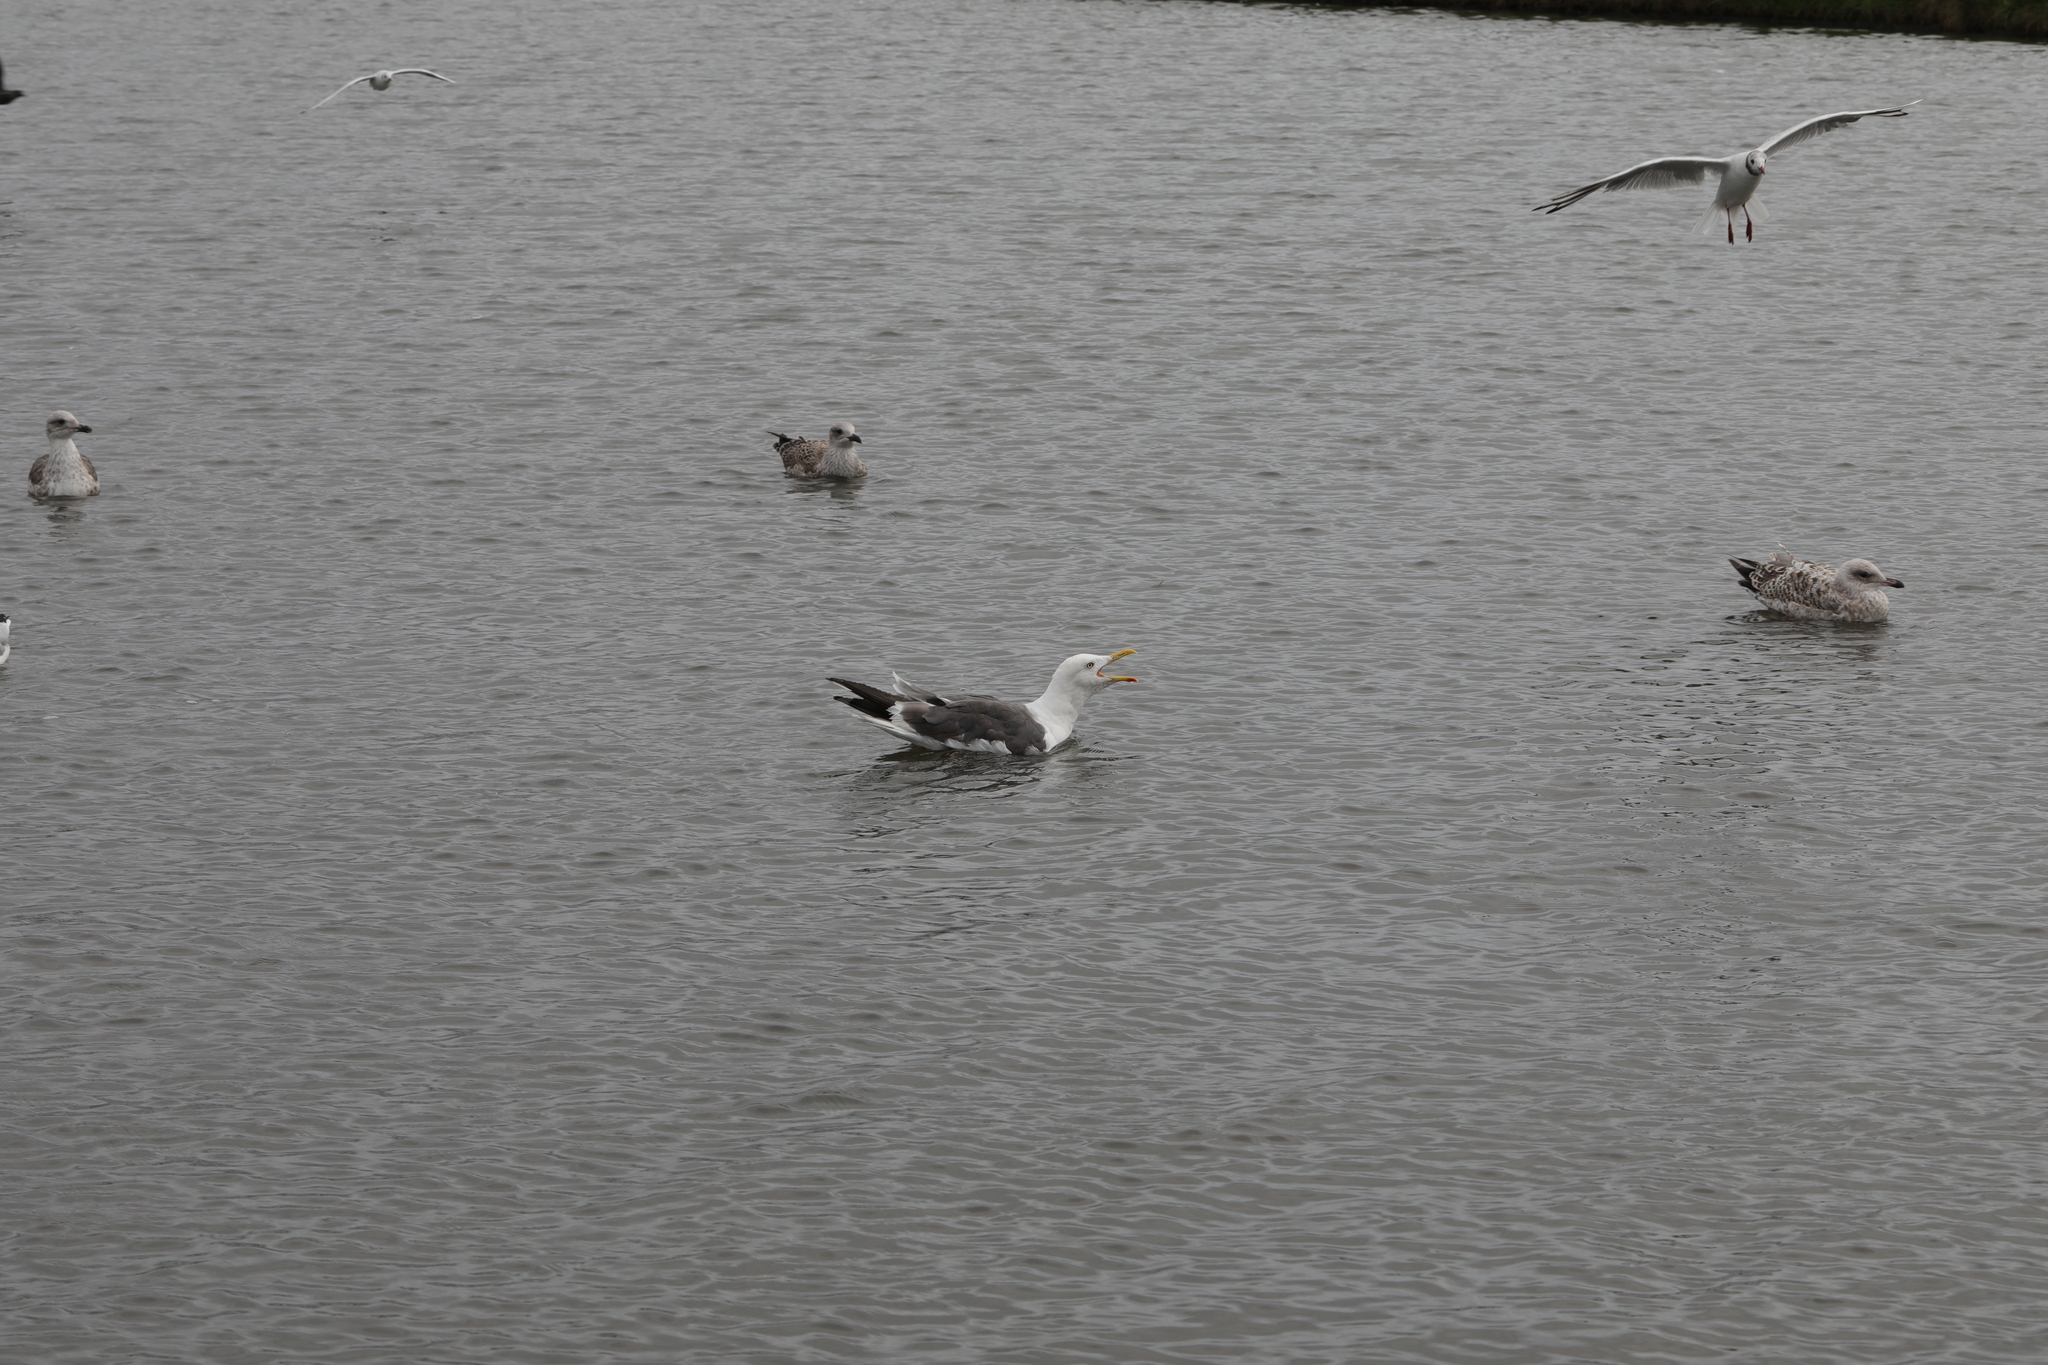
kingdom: Animalia
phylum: Chordata
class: Aves
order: Charadriiformes
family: Laridae
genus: Larus
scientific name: Larus fuscus
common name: Lesser black-backed gull
